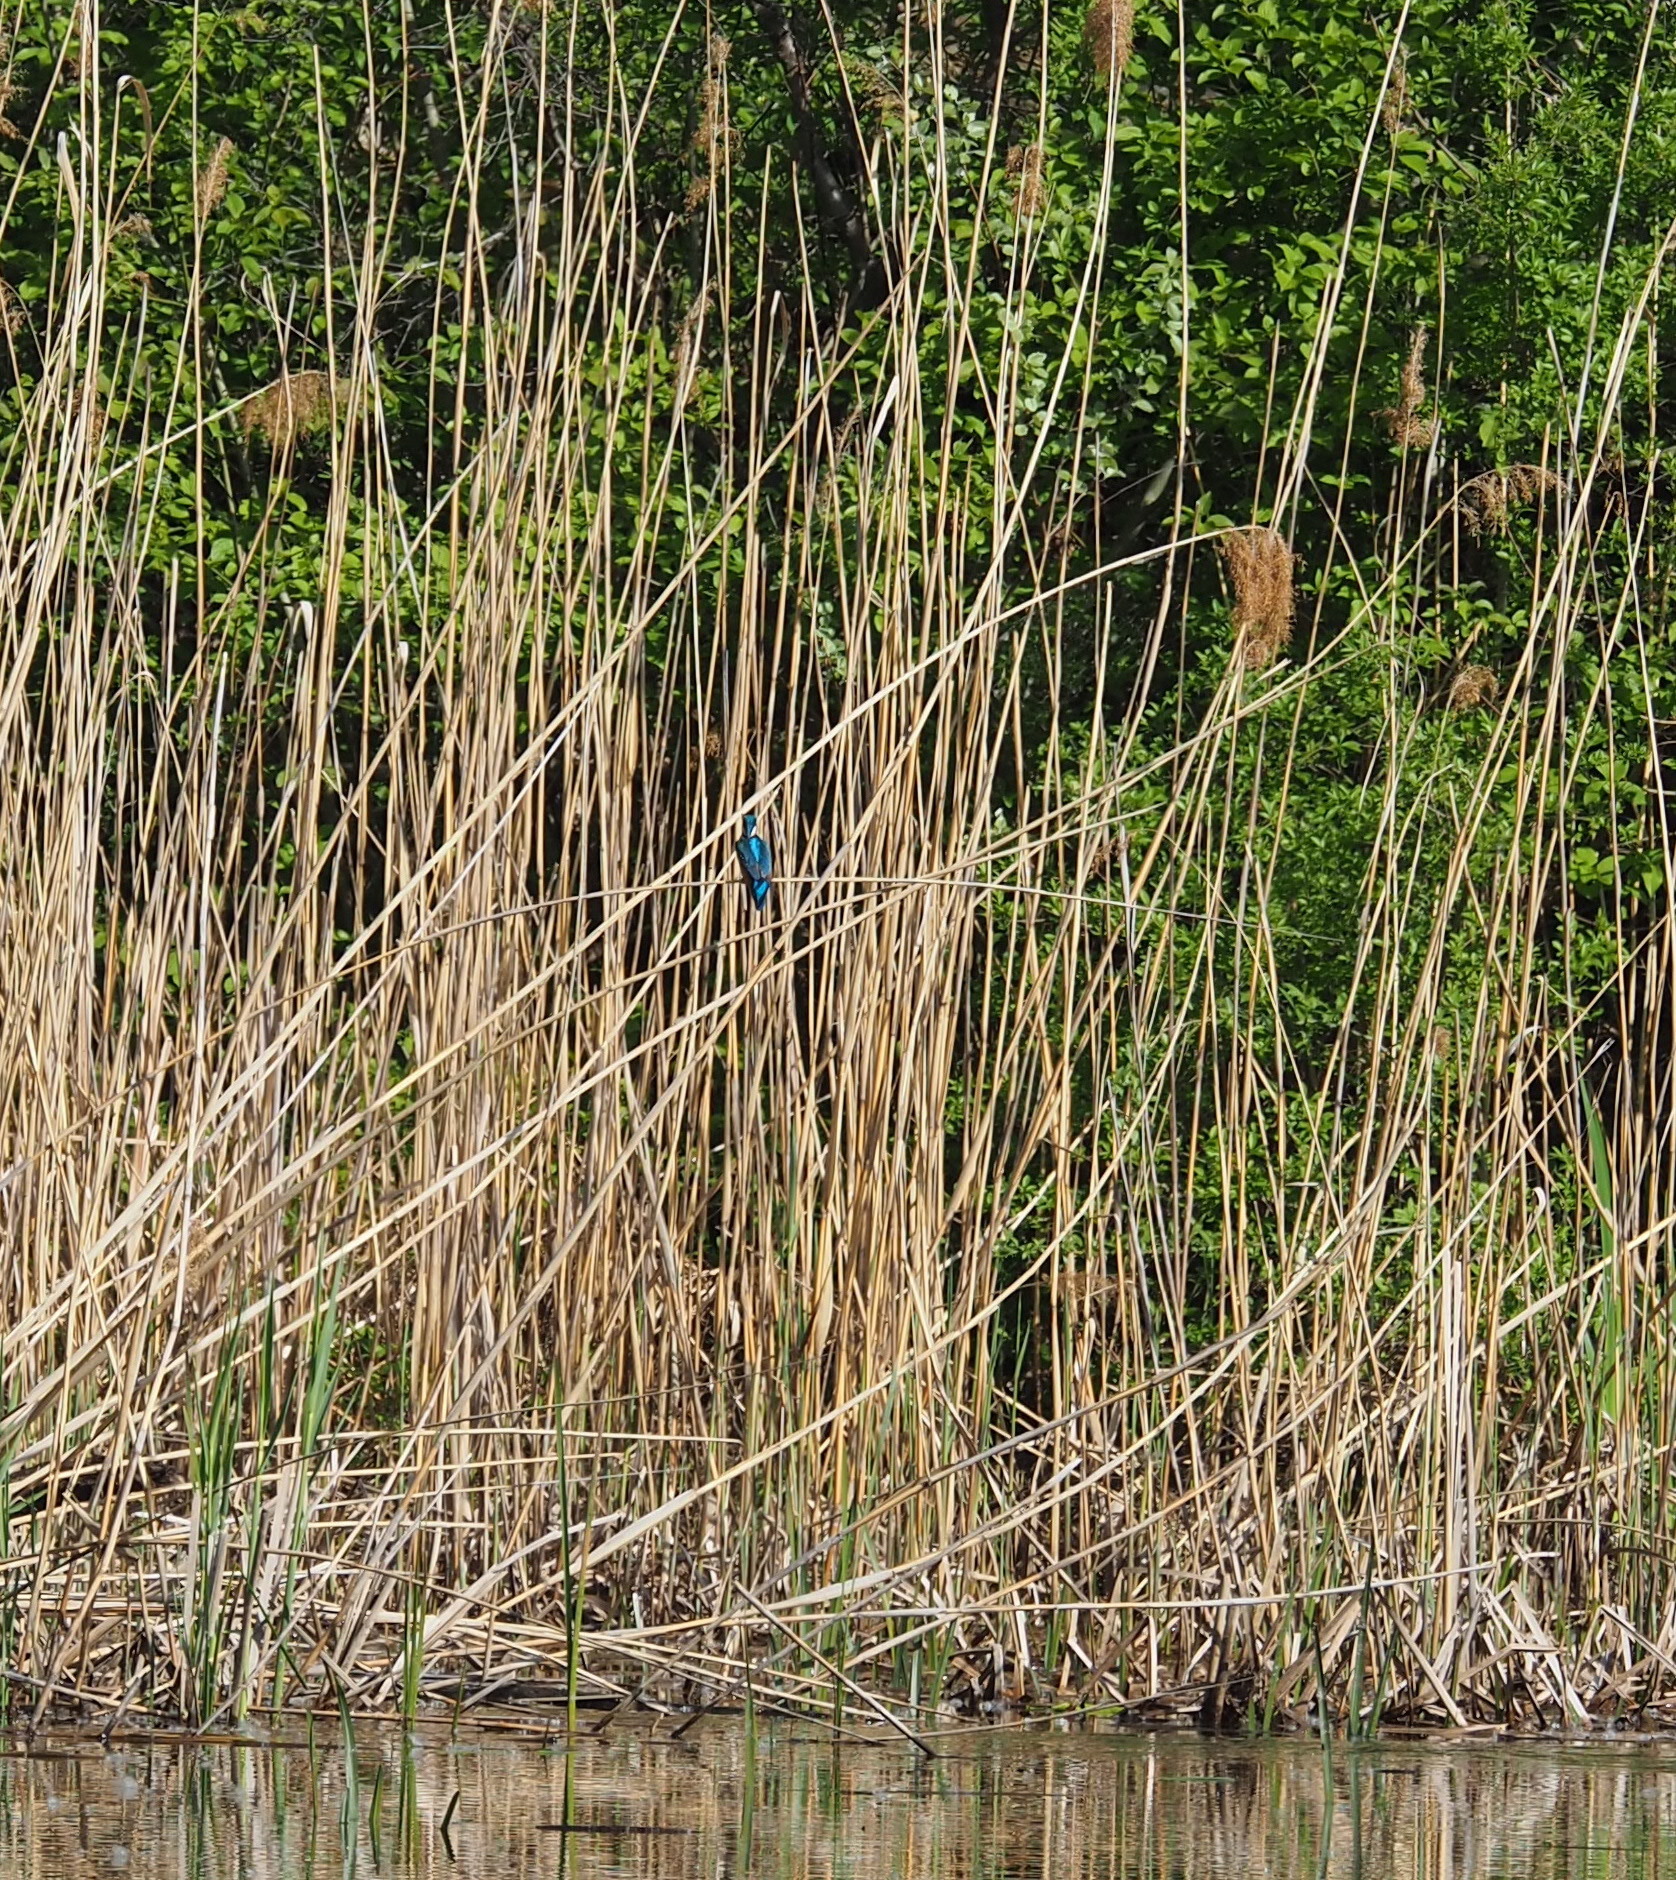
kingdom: Animalia
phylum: Chordata
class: Aves
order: Coraciiformes
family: Alcedinidae
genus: Alcedo
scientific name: Alcedo atthis
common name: Common kingfisher
